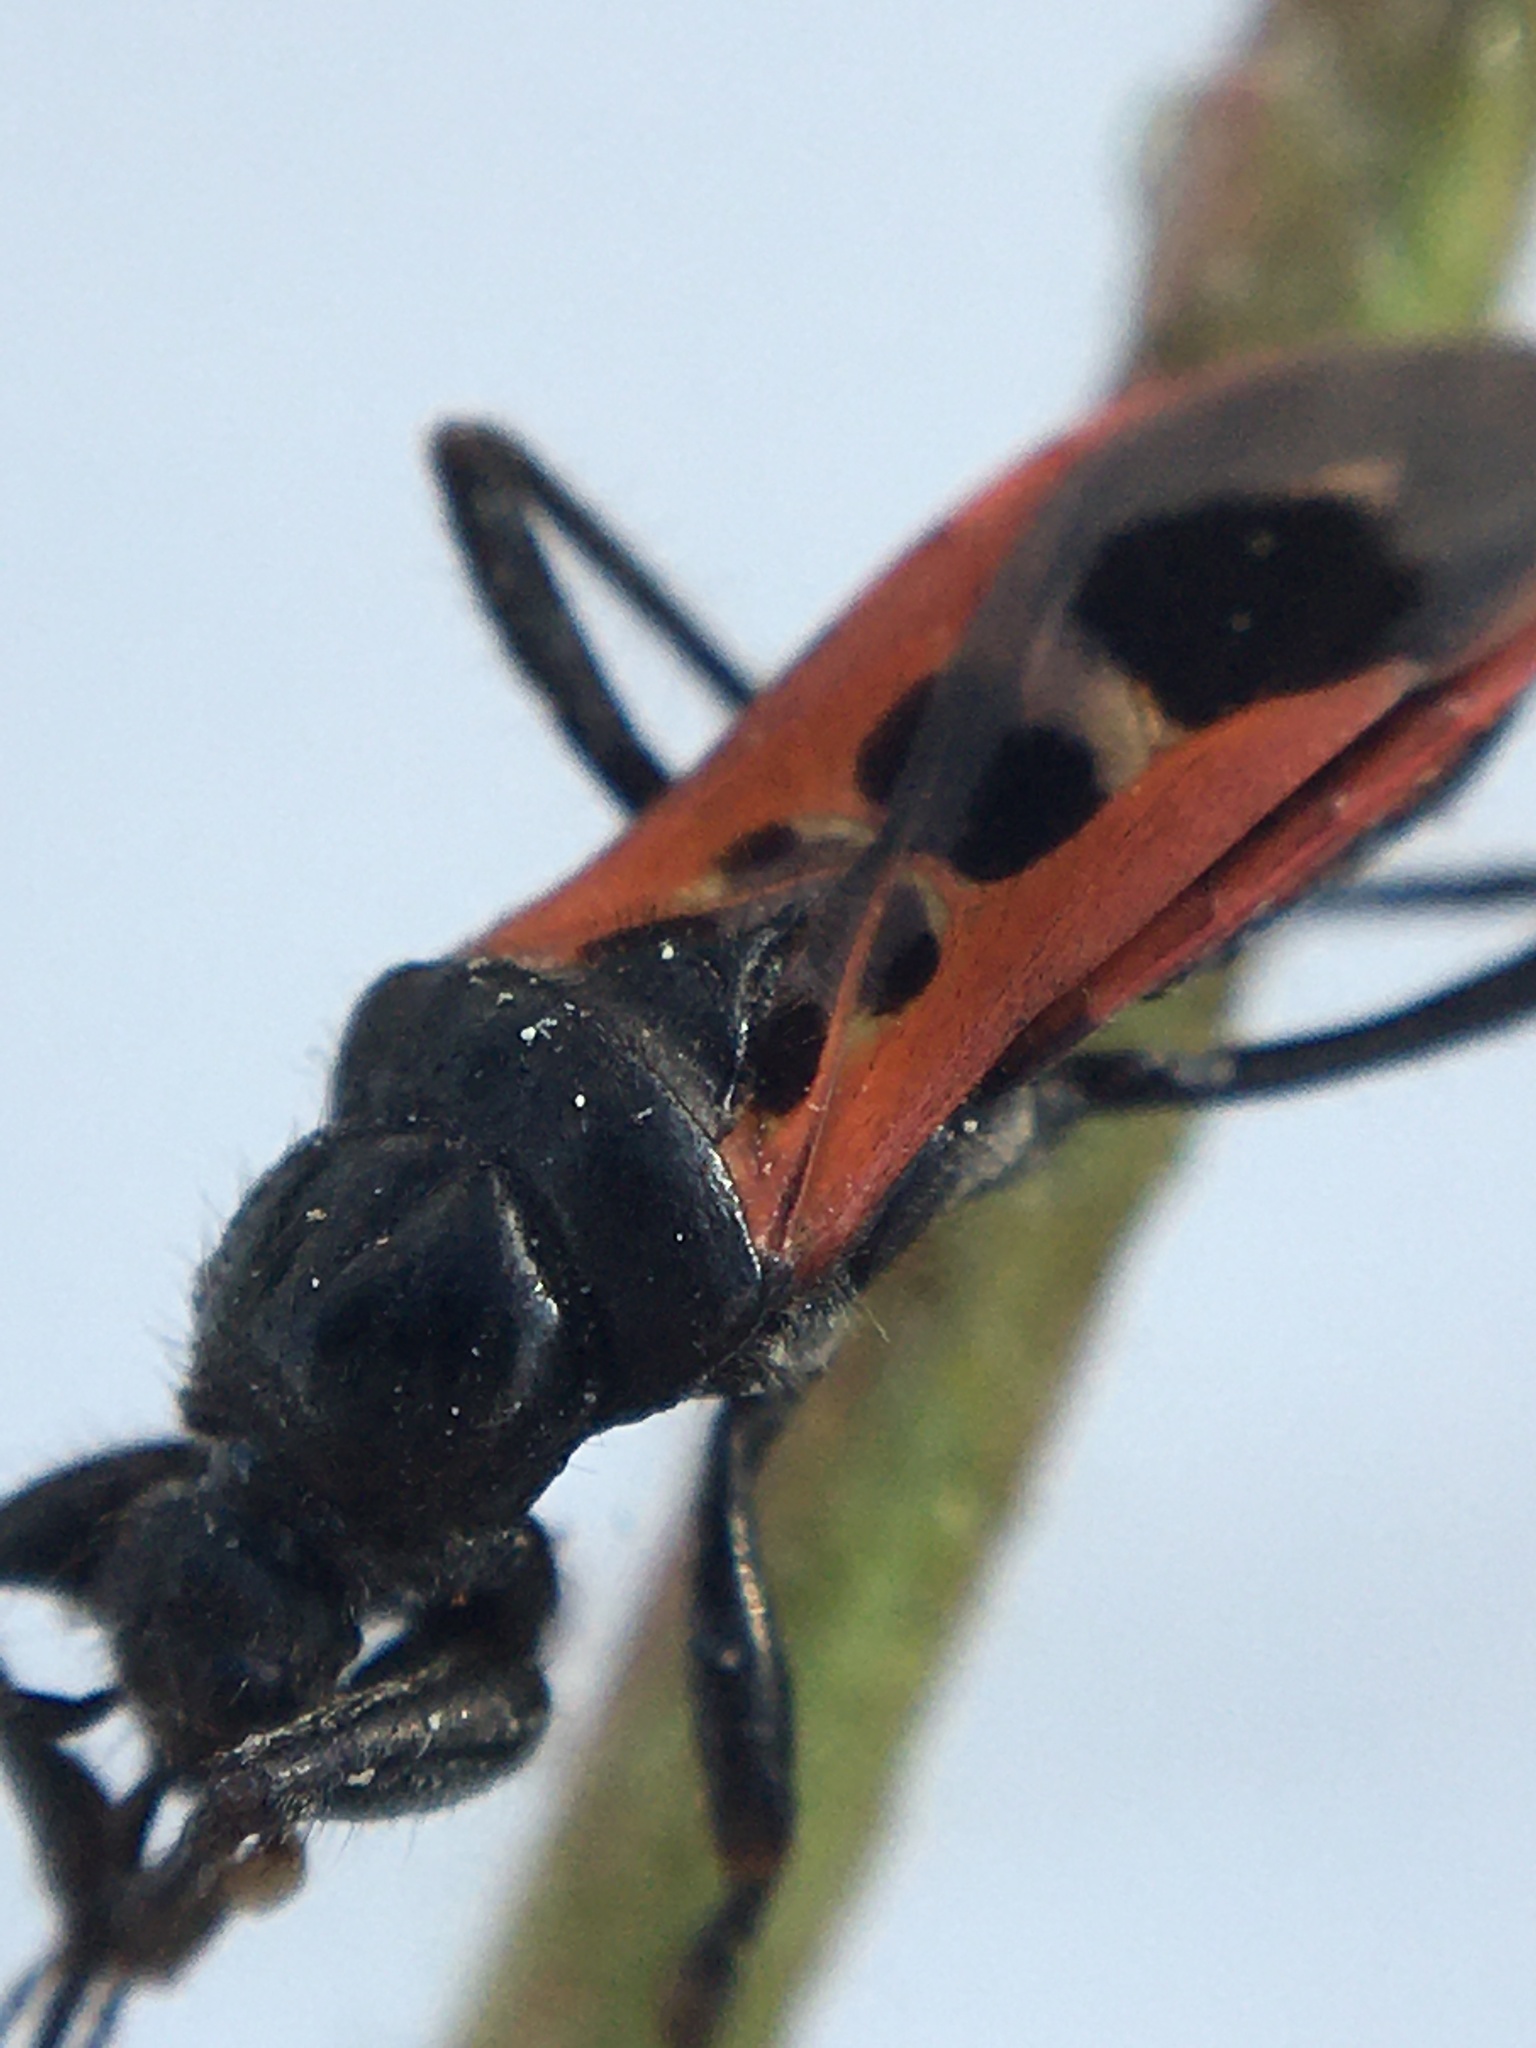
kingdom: Animalia
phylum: Arthropoda
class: Insecta
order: Hemiptera
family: Reduviidae
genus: Peirates
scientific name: Peirates stridulus
